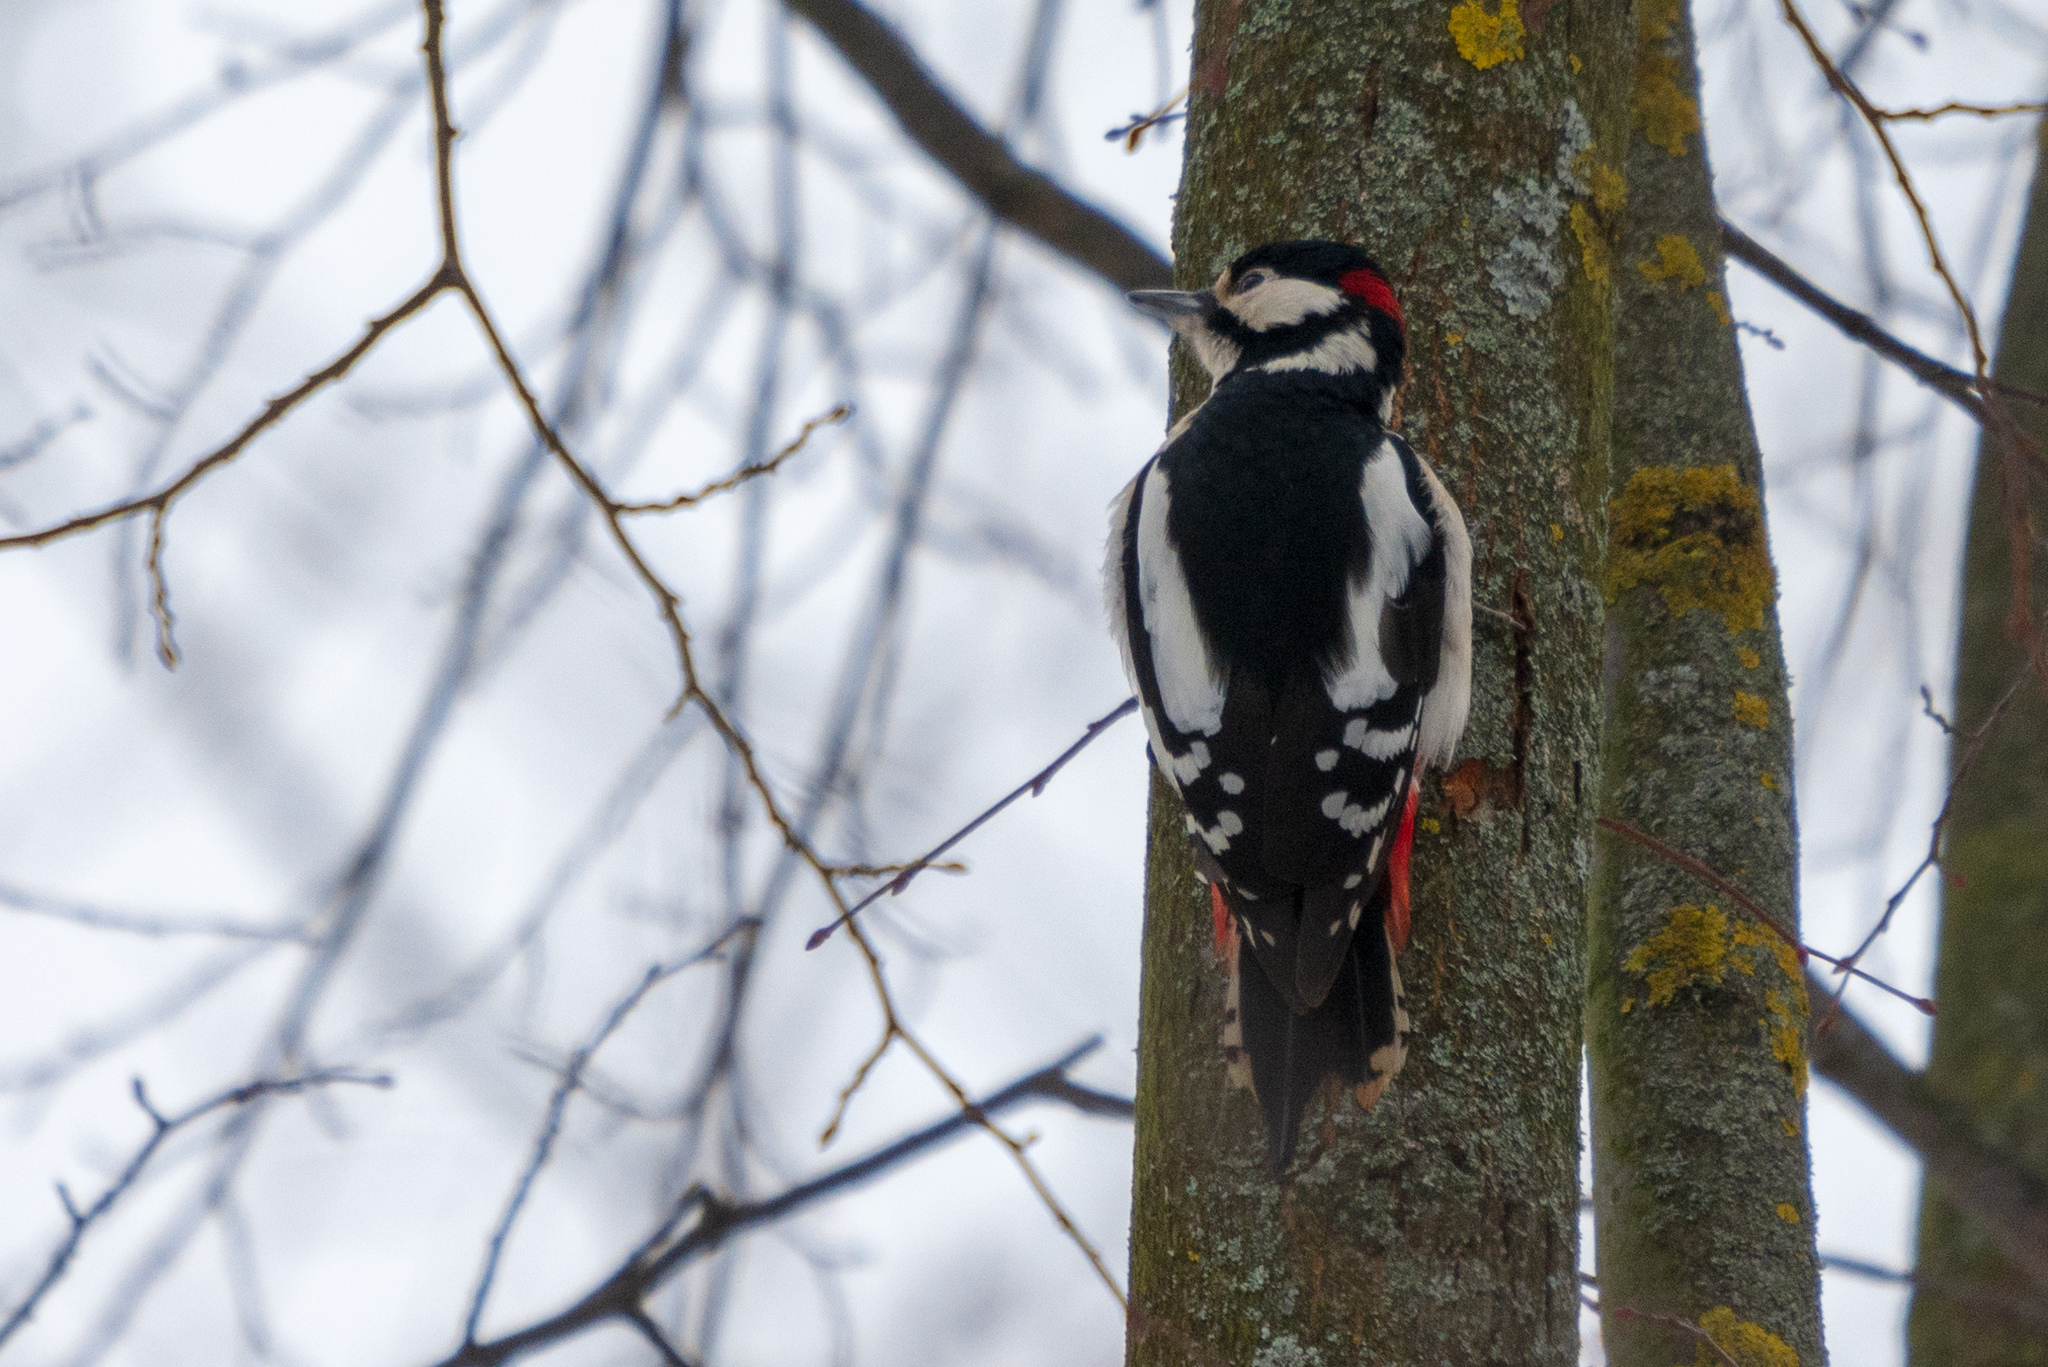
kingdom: Animalia
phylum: Chordata
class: Aves
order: Piciformes
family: Picidae
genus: Dendrocopos
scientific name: Dendrocopos major
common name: Great spotted woodpecker
